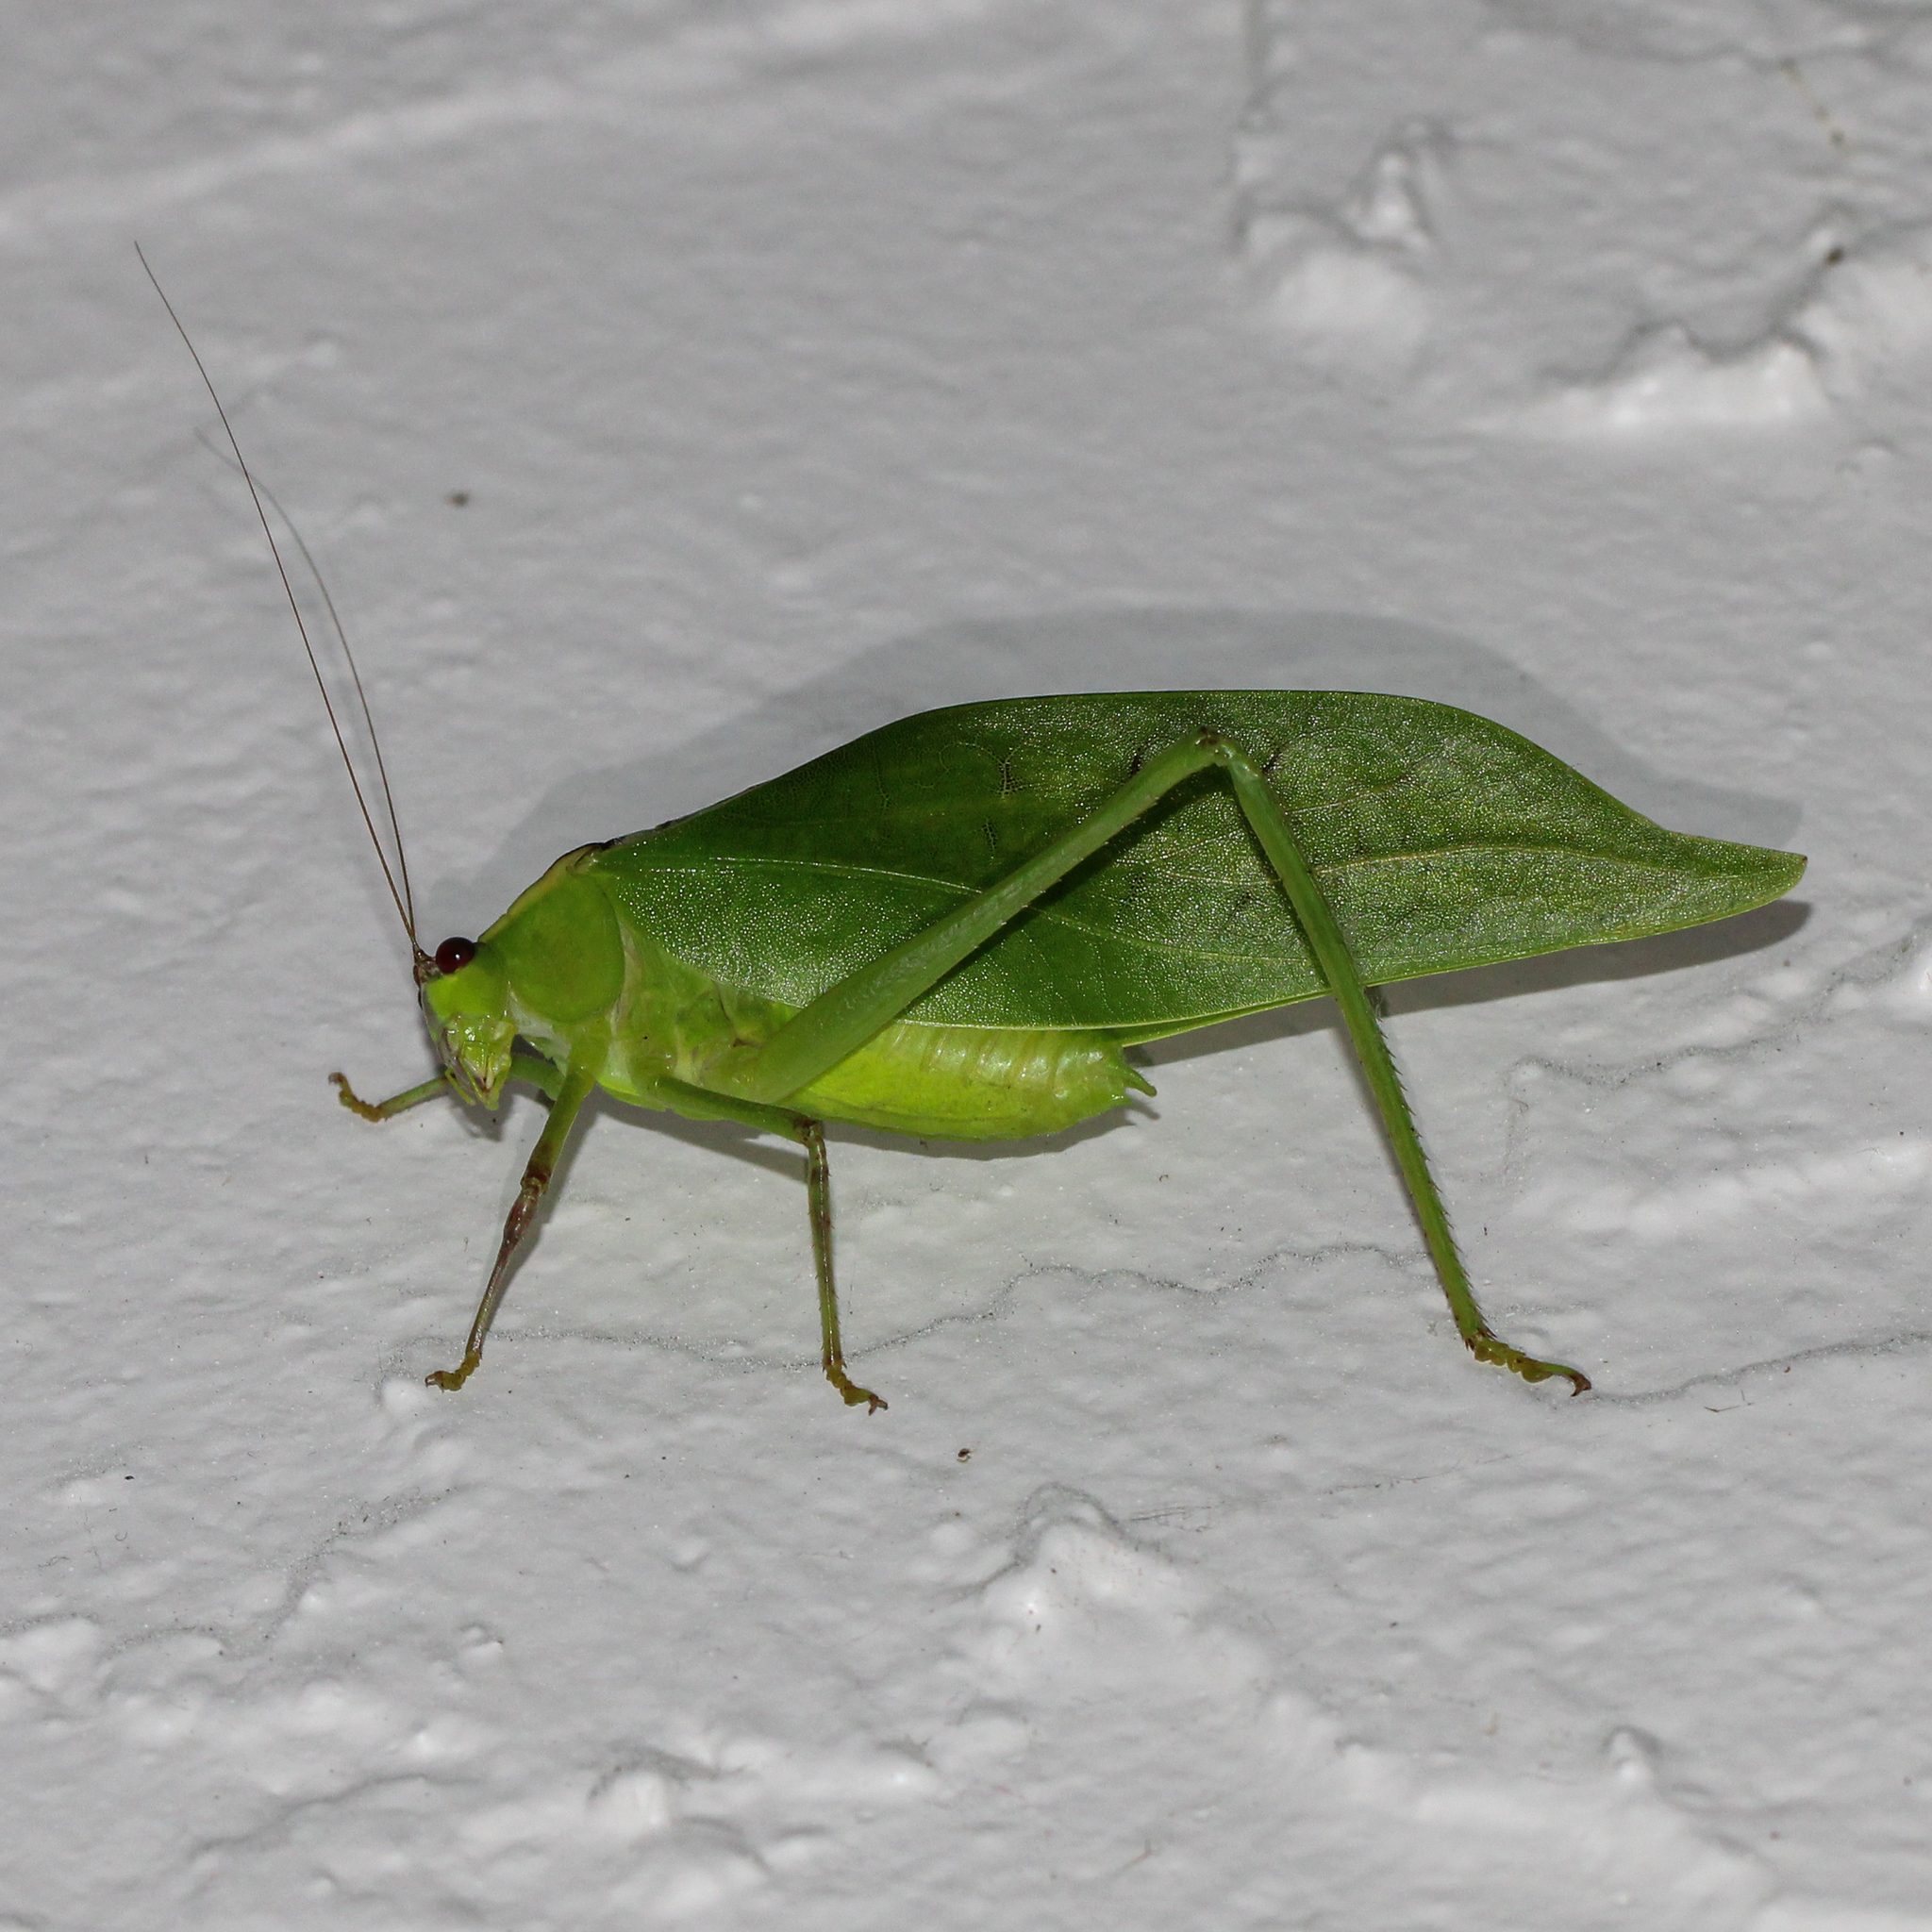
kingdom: Animalia
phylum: Arthropoda
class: Insecta
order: Orthoptera
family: Tettigoniidae
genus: Stilpnochlora
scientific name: Stilpnochlora couloniana
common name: Giant katydid
